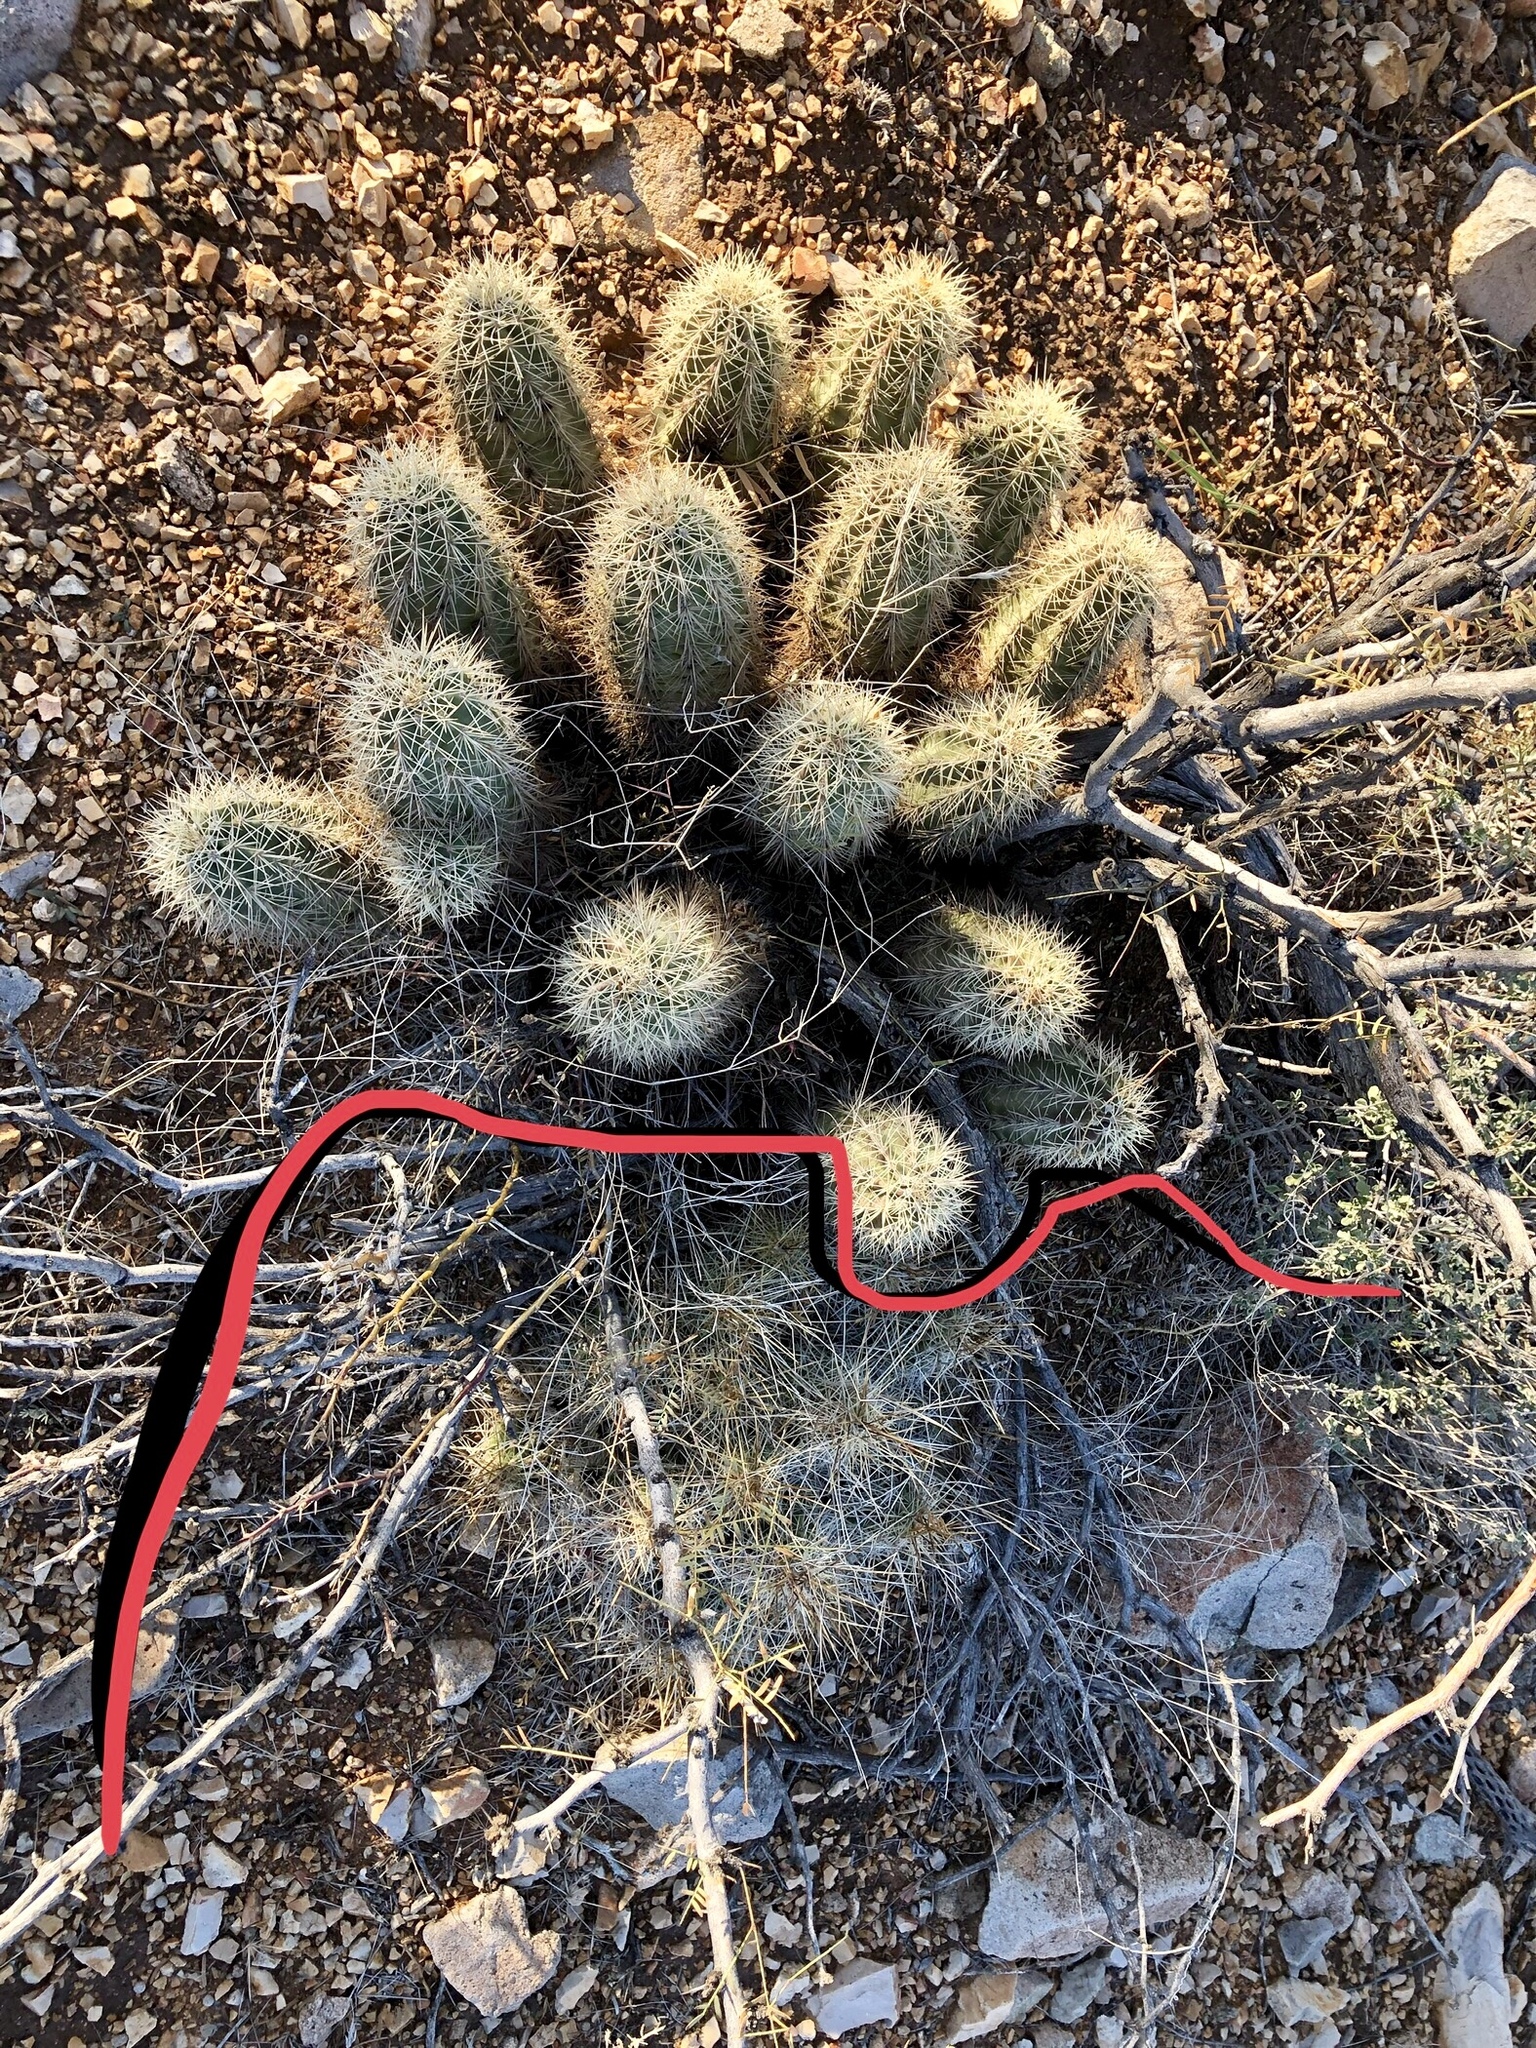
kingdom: Plantae
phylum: Tracheophyta
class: Magnoliopsida
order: Caryophyllales
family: Cactaceae
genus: Echinocereus
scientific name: Echinocereus coccineus
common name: Scarlet hedgehog cactus
